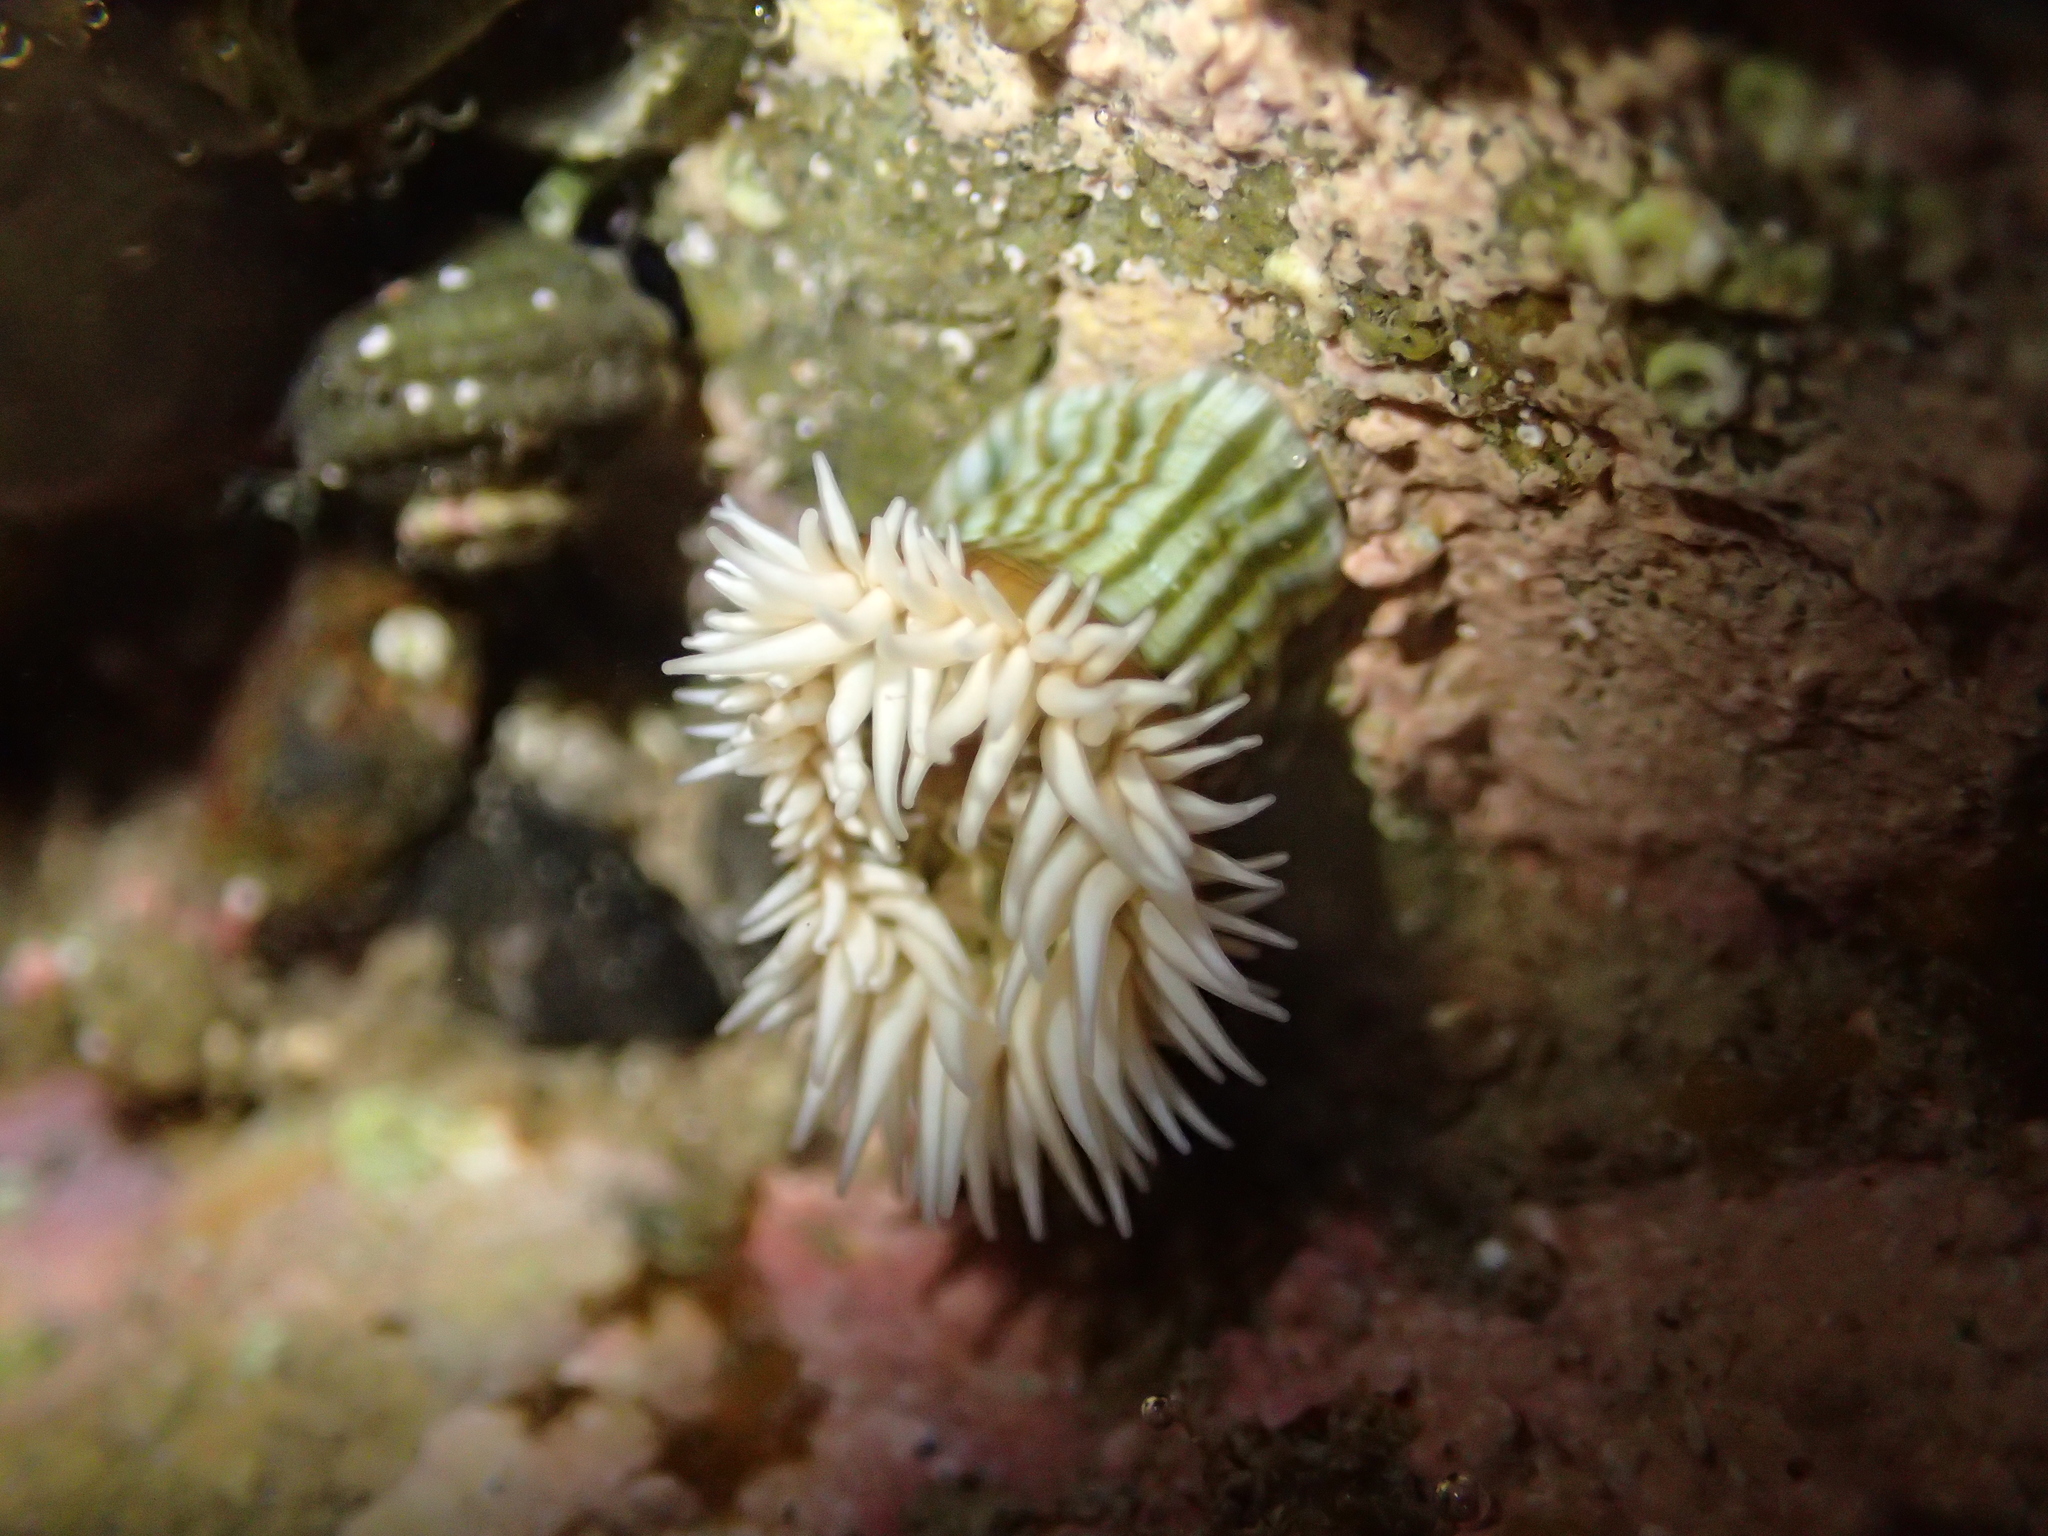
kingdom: Animalia
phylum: Cnidaria
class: Anthozoa
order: Actiniaria
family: Sagartiidae
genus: Anthothoe
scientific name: Anthothoe albocincta
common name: Orange striped anemone
